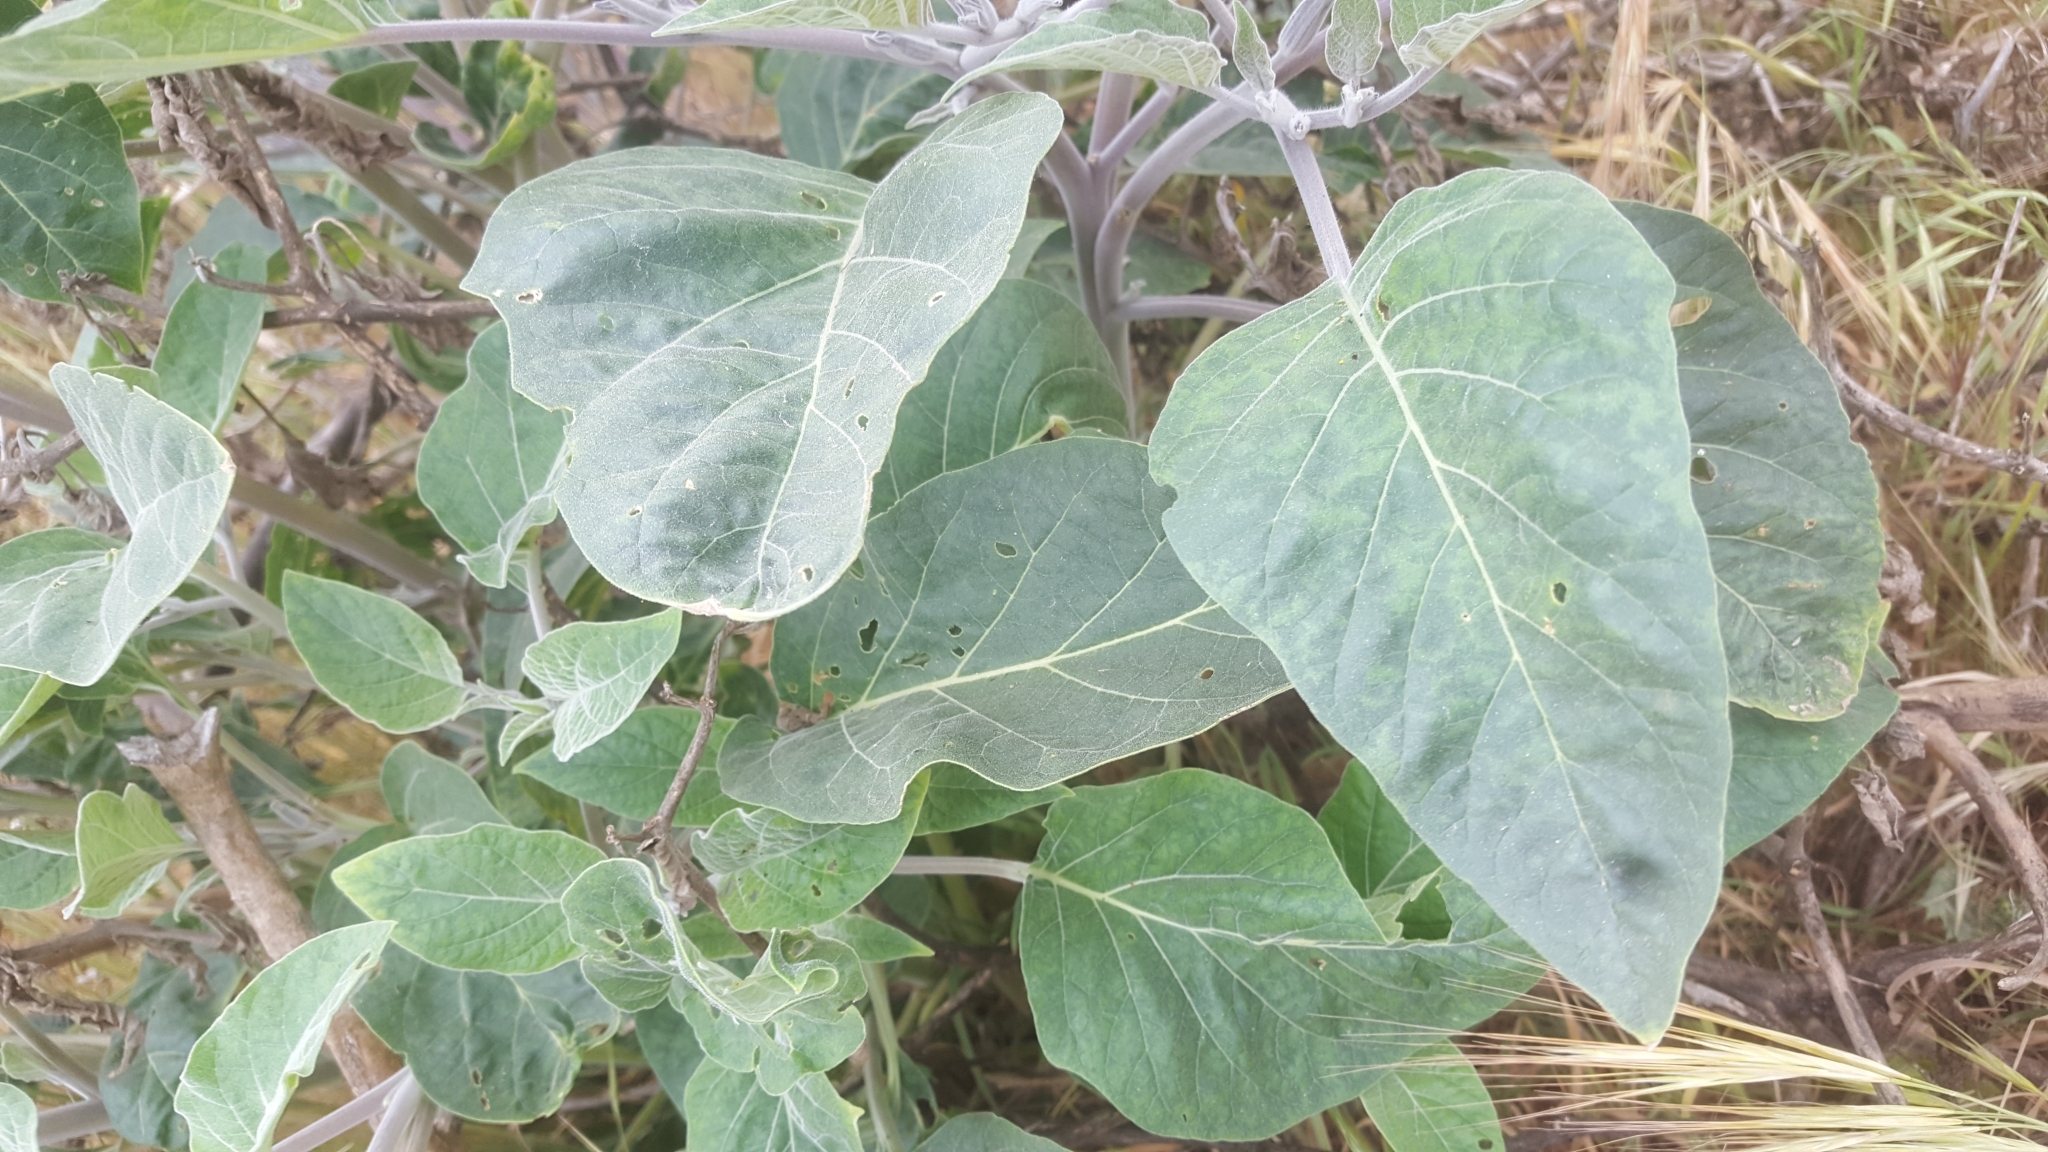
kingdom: Plantae
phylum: Tracheophyta
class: Magnoliopsida
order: Solanales
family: Solanaceae
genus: Datura
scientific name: Datura wrightii
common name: Sacred thorn-apple
